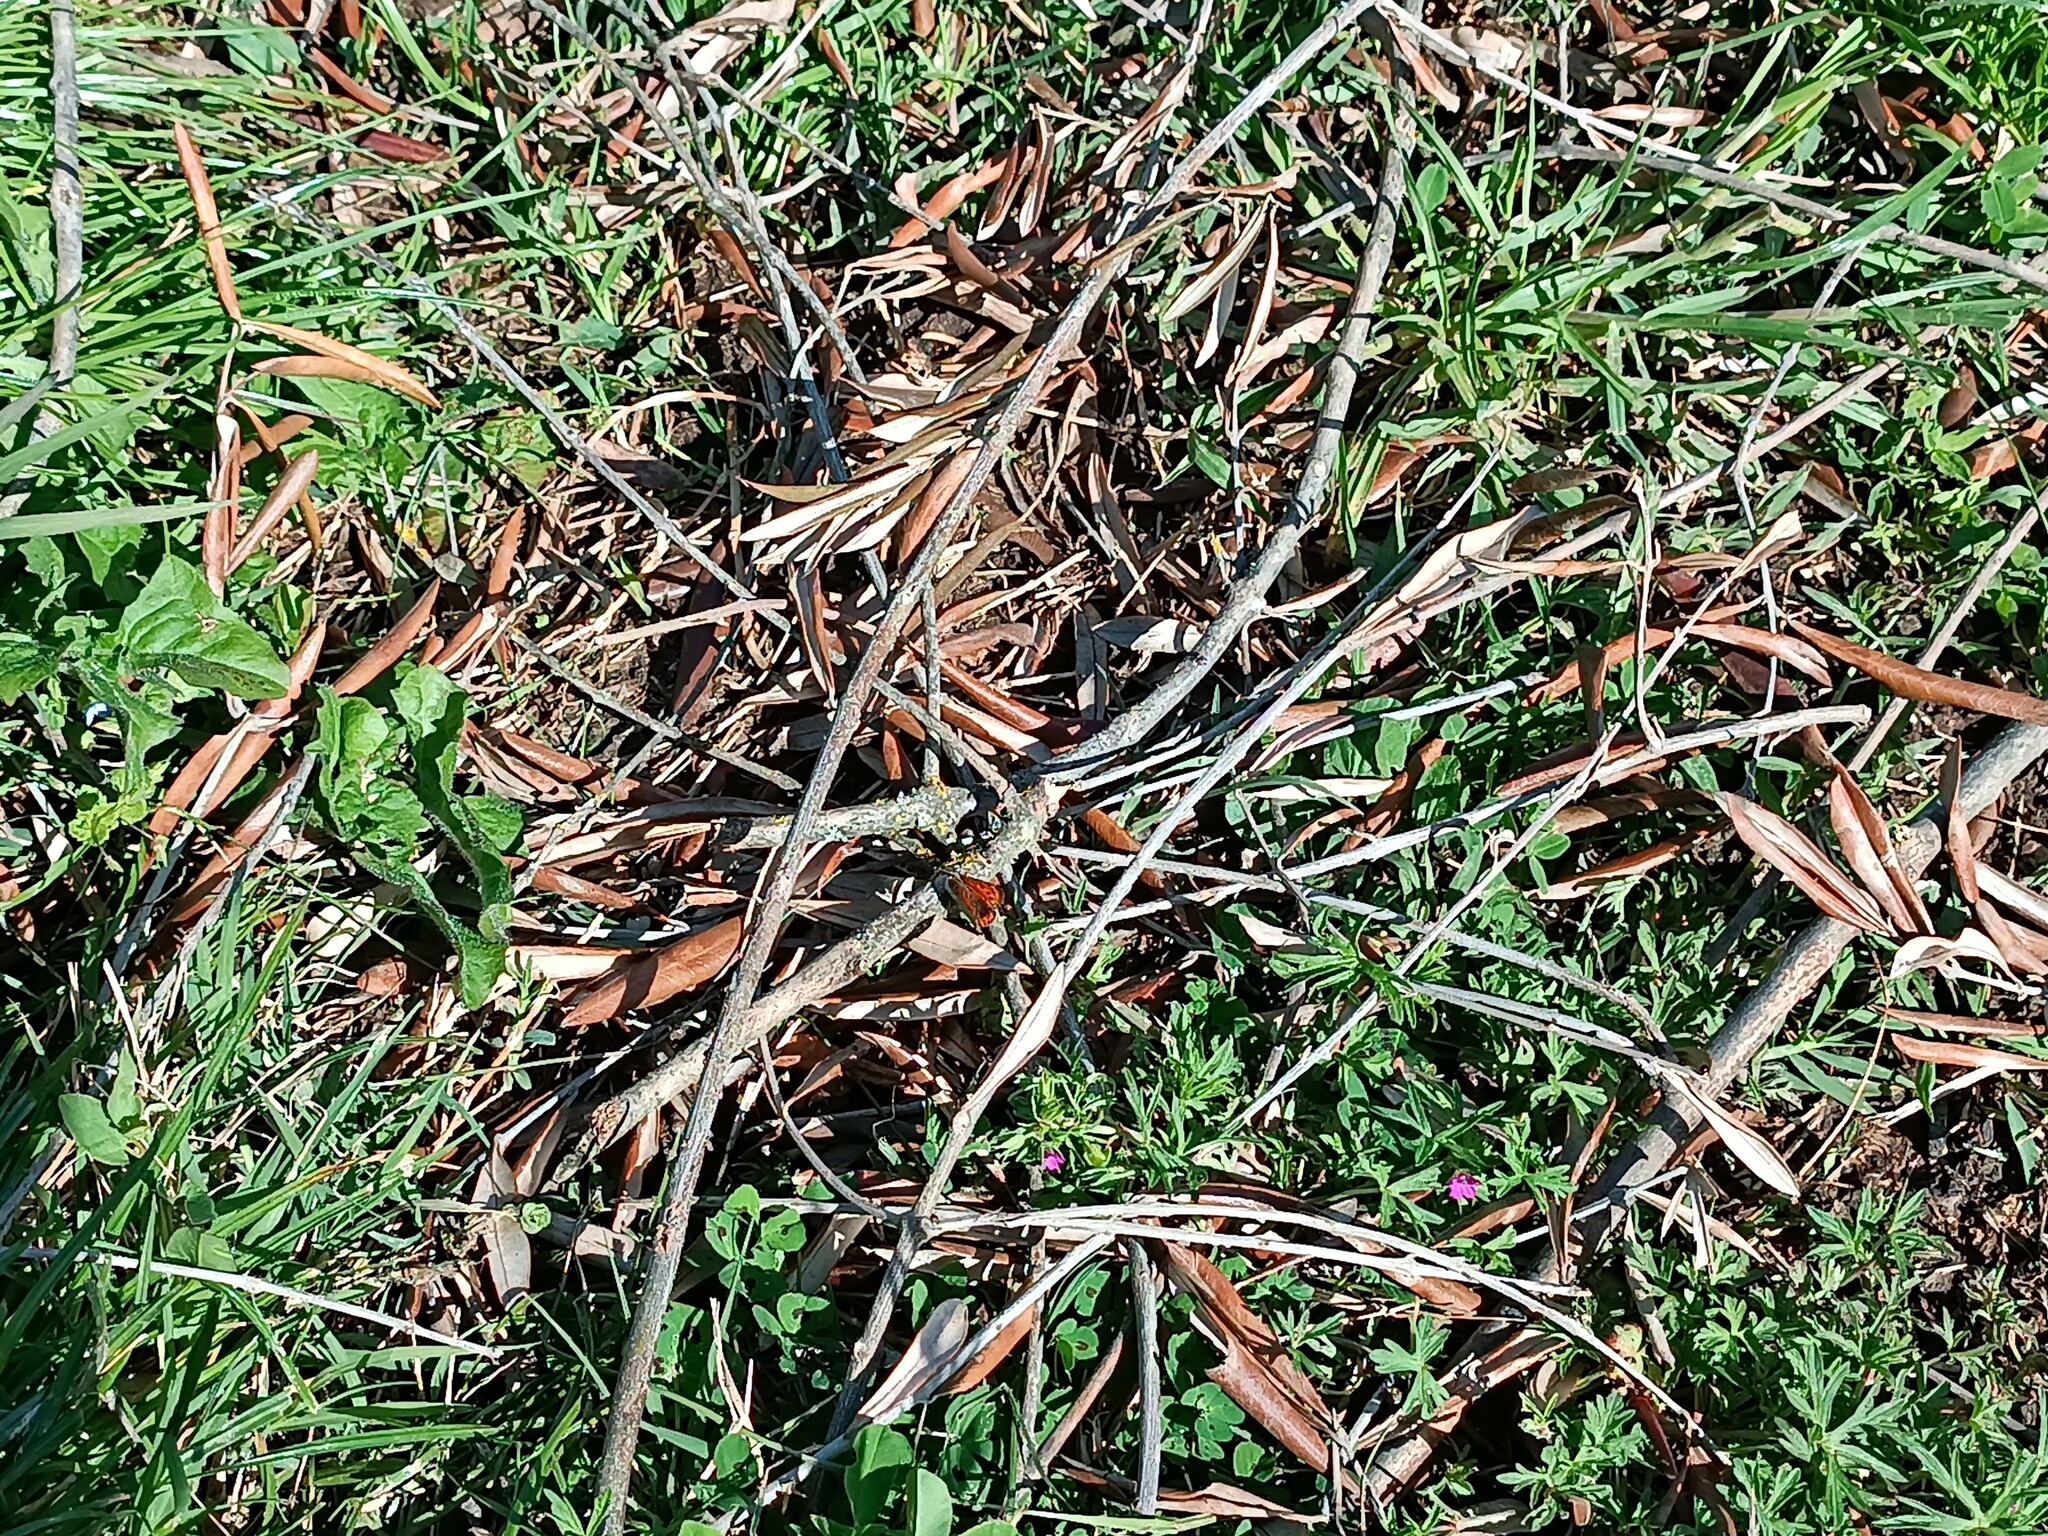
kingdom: Animalia
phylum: Arthropoda
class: Insecta
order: Lepidoptera
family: Lycaenidae
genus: Lycaena
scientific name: Lycaena phlaeas
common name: Small copper
